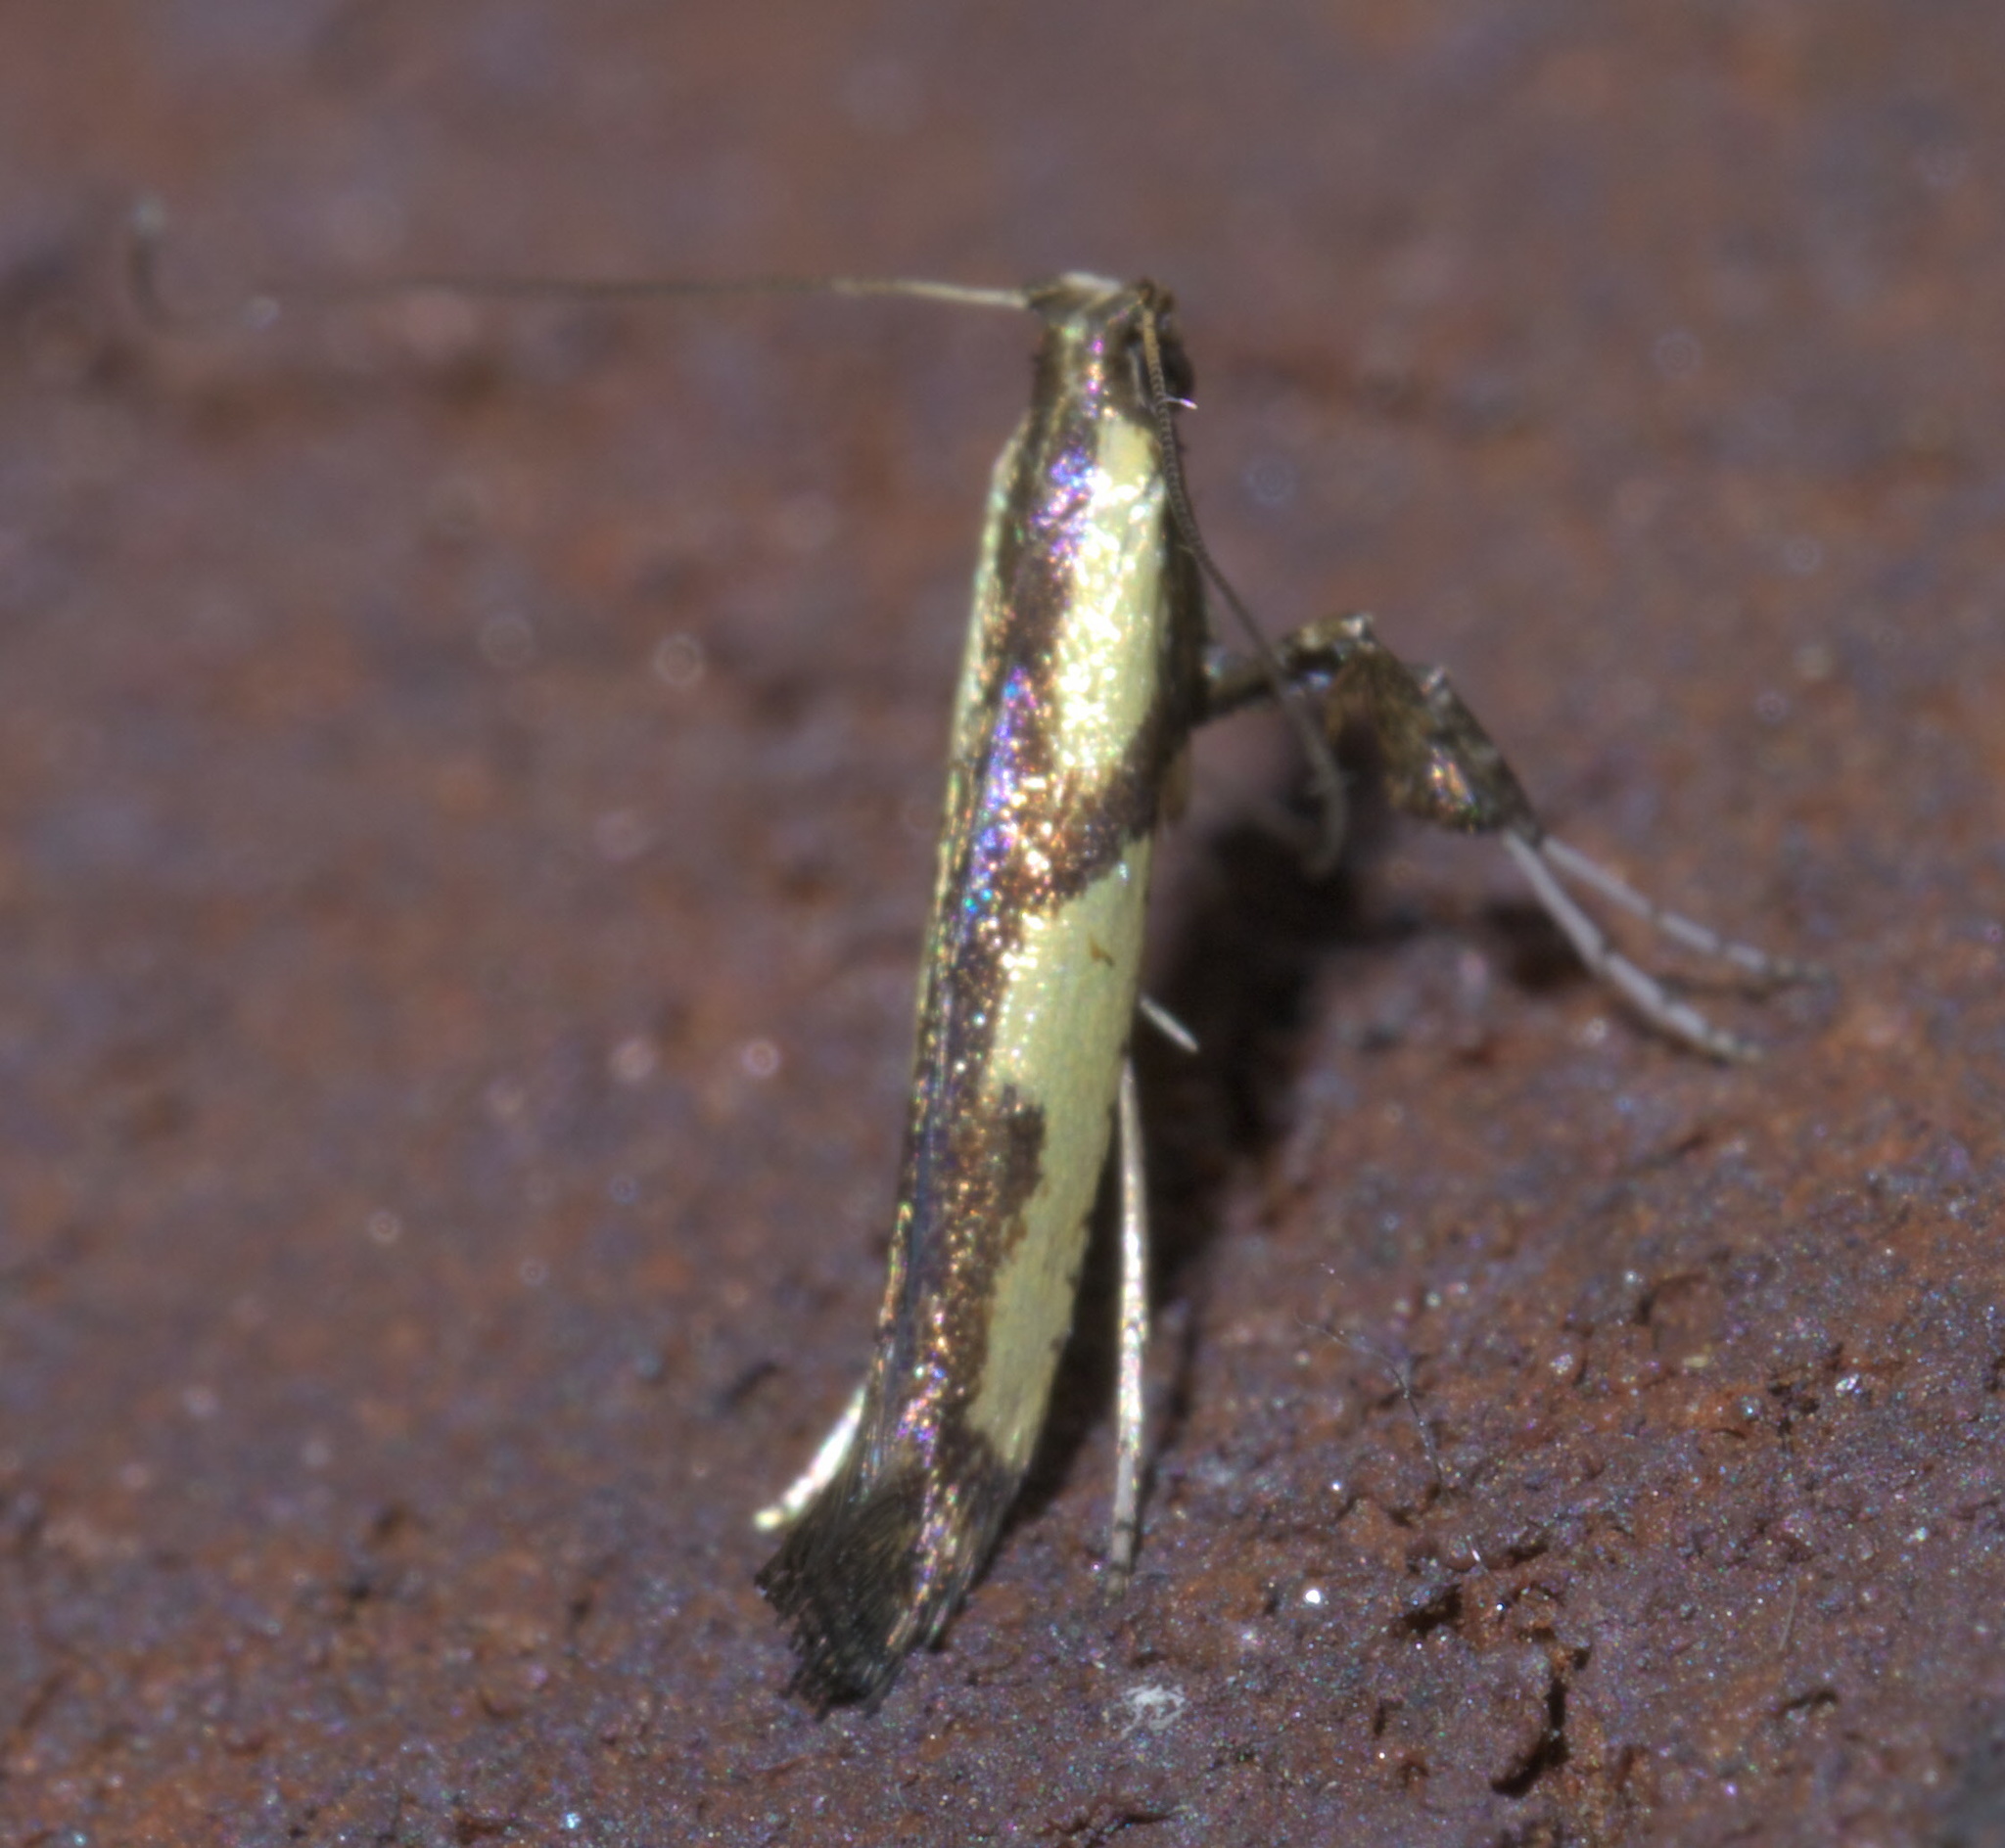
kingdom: Animalia
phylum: Arthropoda
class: Insecta
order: Lepidoptera
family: Gracillariidae
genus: Caloptilia
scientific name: Caloptilia blandella
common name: Walnut caloptilia moth
